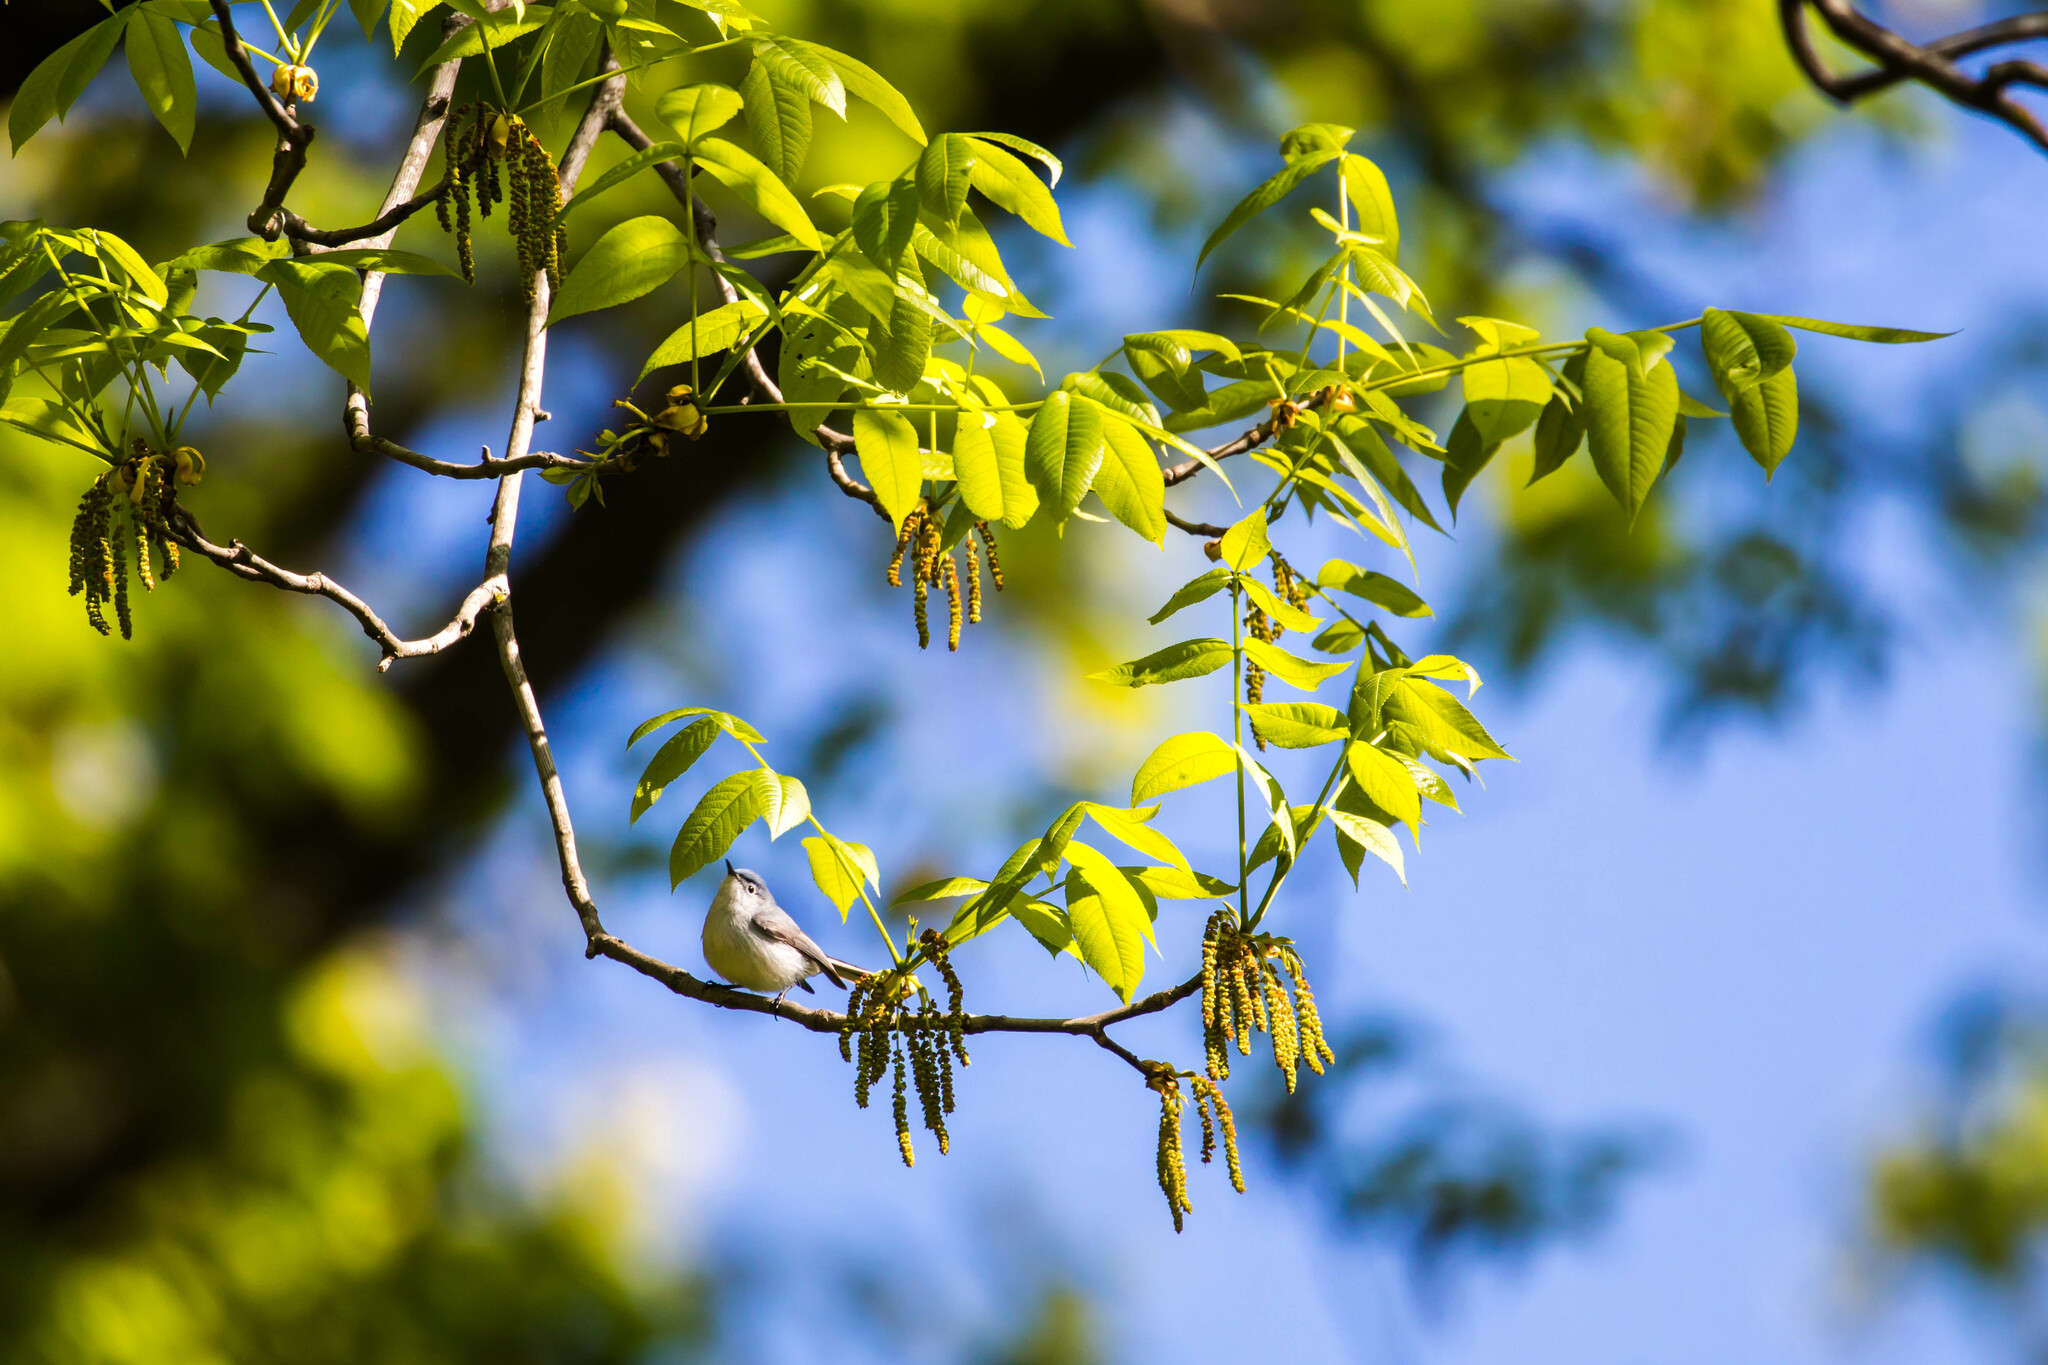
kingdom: Animalia
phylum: Chordata
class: Aves
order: Passeriformes
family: Polioptilidae
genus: Polioptila
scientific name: Polioptila caerulea
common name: Blue-gray gnatcatcher
